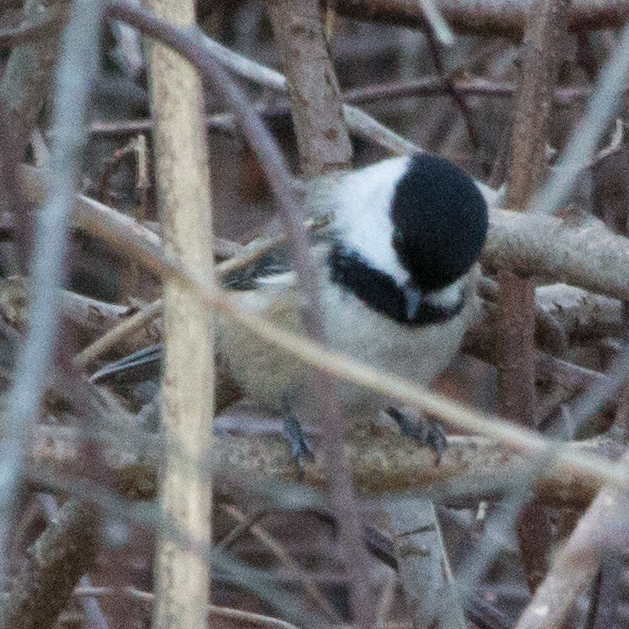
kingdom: Animalia
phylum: Chordata
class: Aves
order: Passeriformes
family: Paridae
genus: Poecile
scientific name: Poecile atricapillus
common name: Black-capped chickadee
